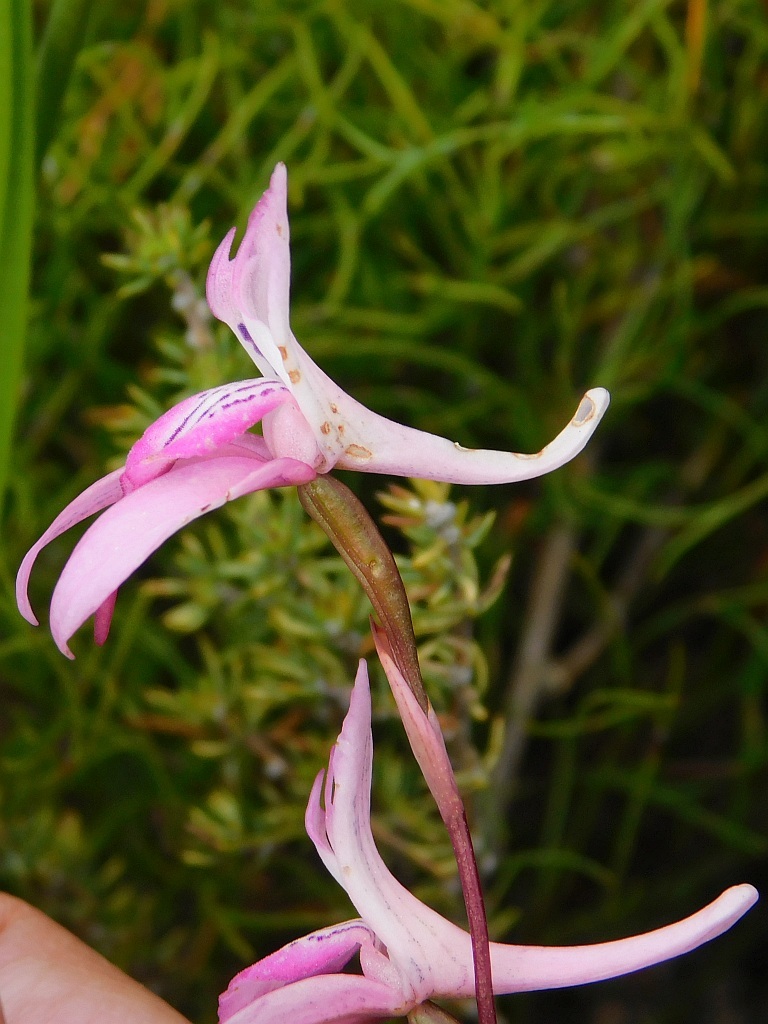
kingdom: Plantae
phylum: Tracheophyta
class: Liliopsida
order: Asparagales
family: Orchidaceae
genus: Disa
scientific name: Disa bifida
